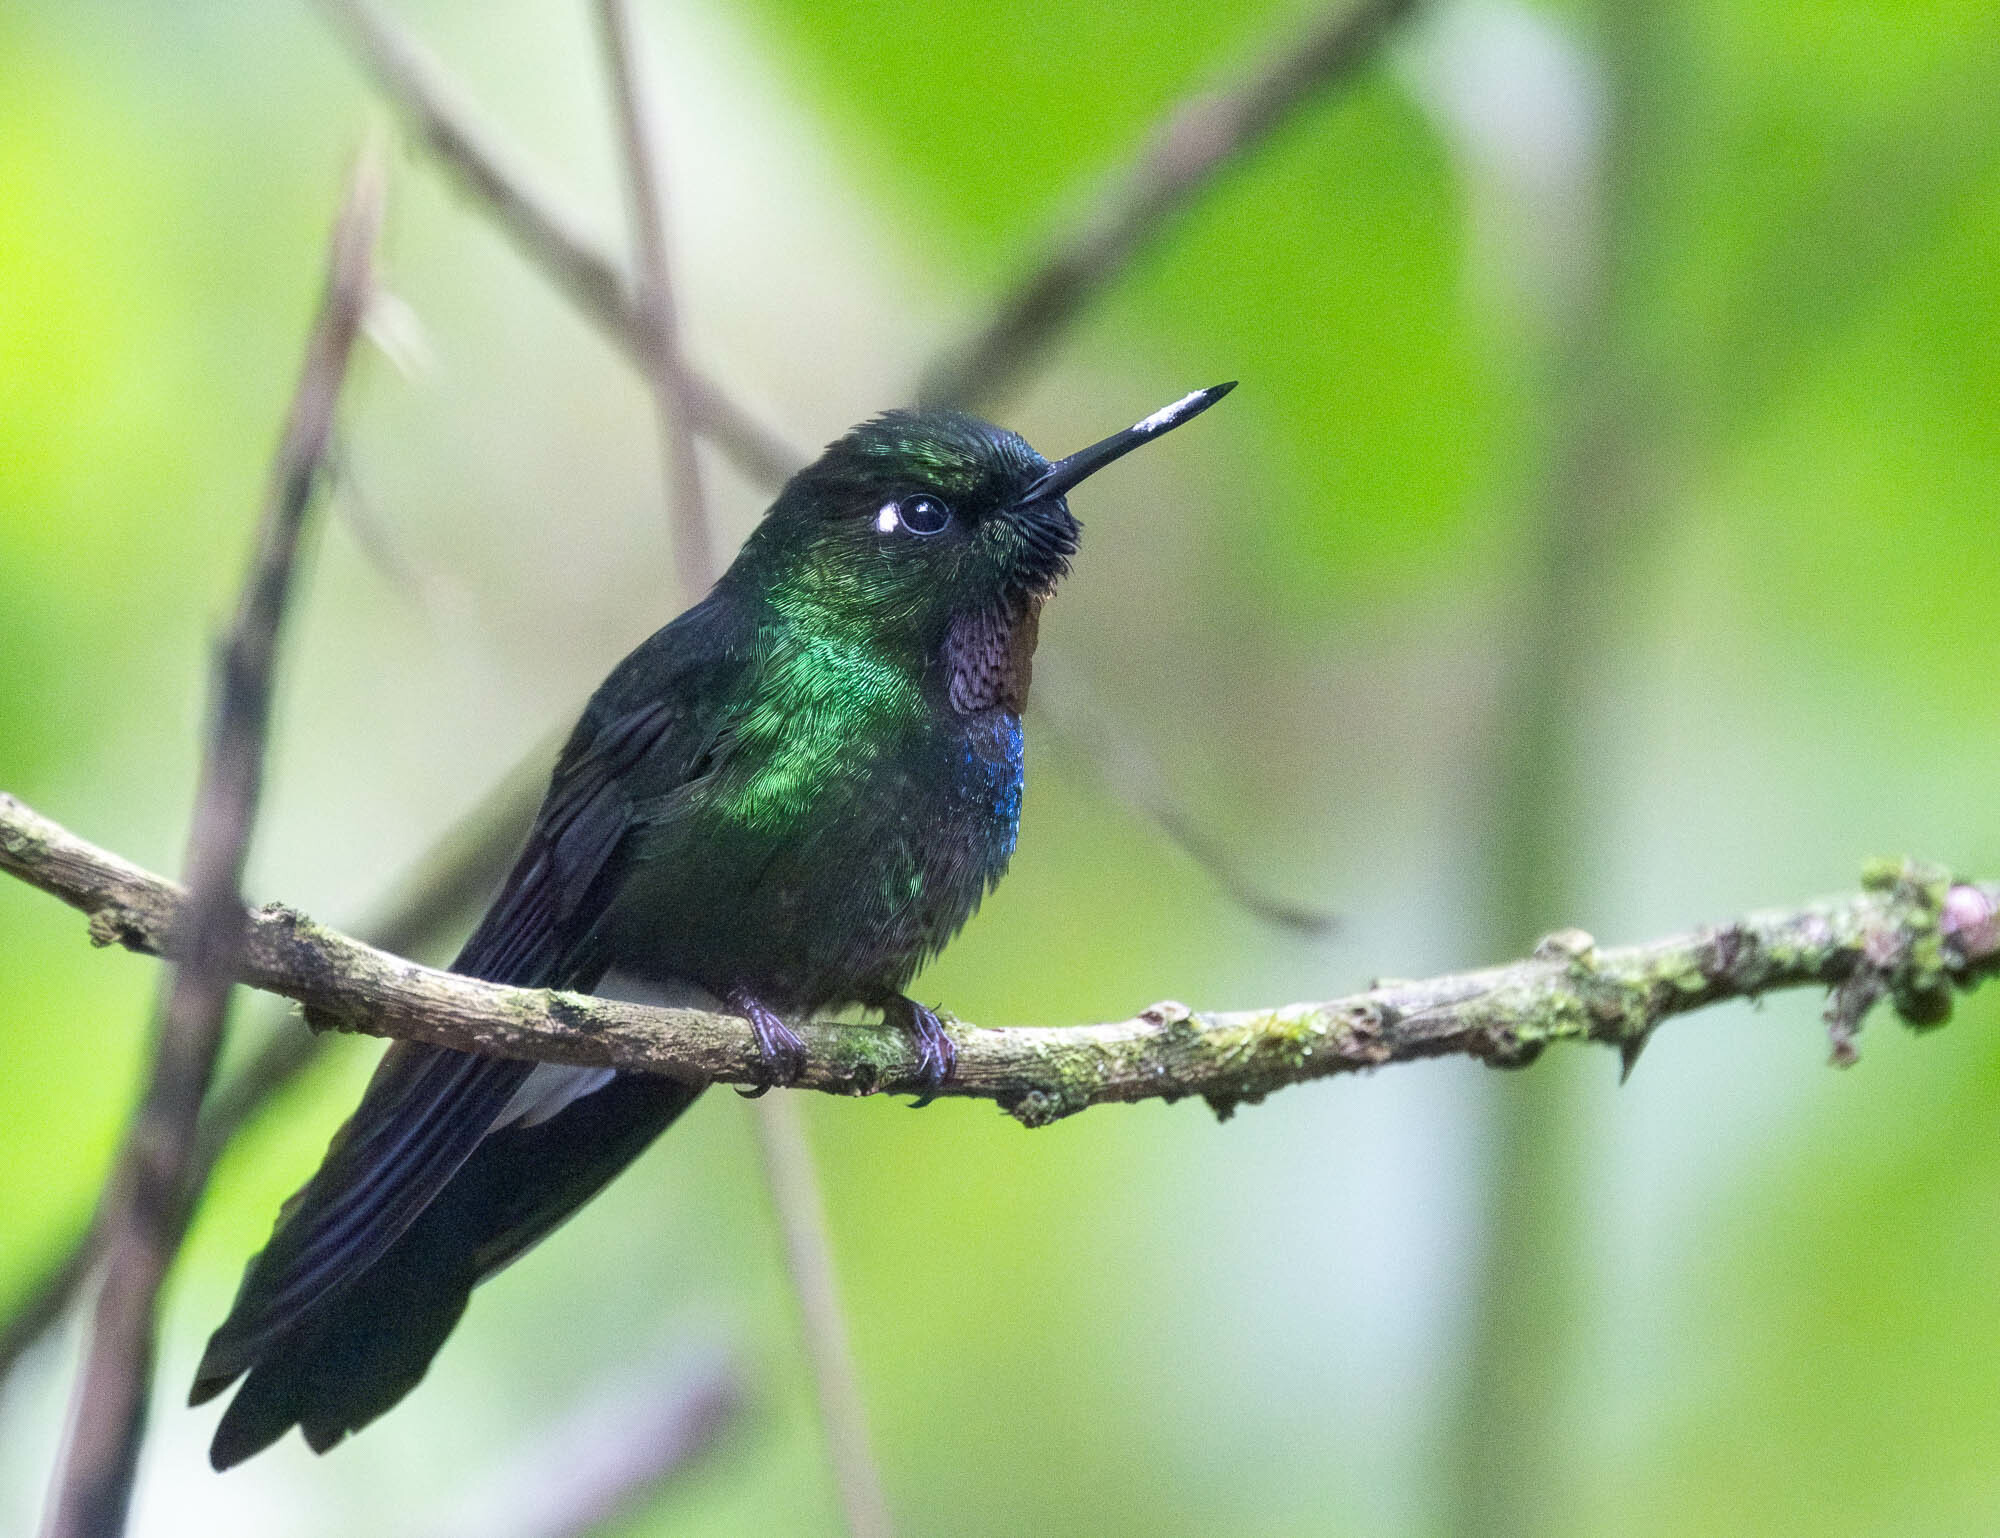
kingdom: Animalia
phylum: Chordata
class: Aves
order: Apodiformes
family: Trochilidae
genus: Heliangelus
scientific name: Heliangelus exortis
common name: Tourmaline sunangel
